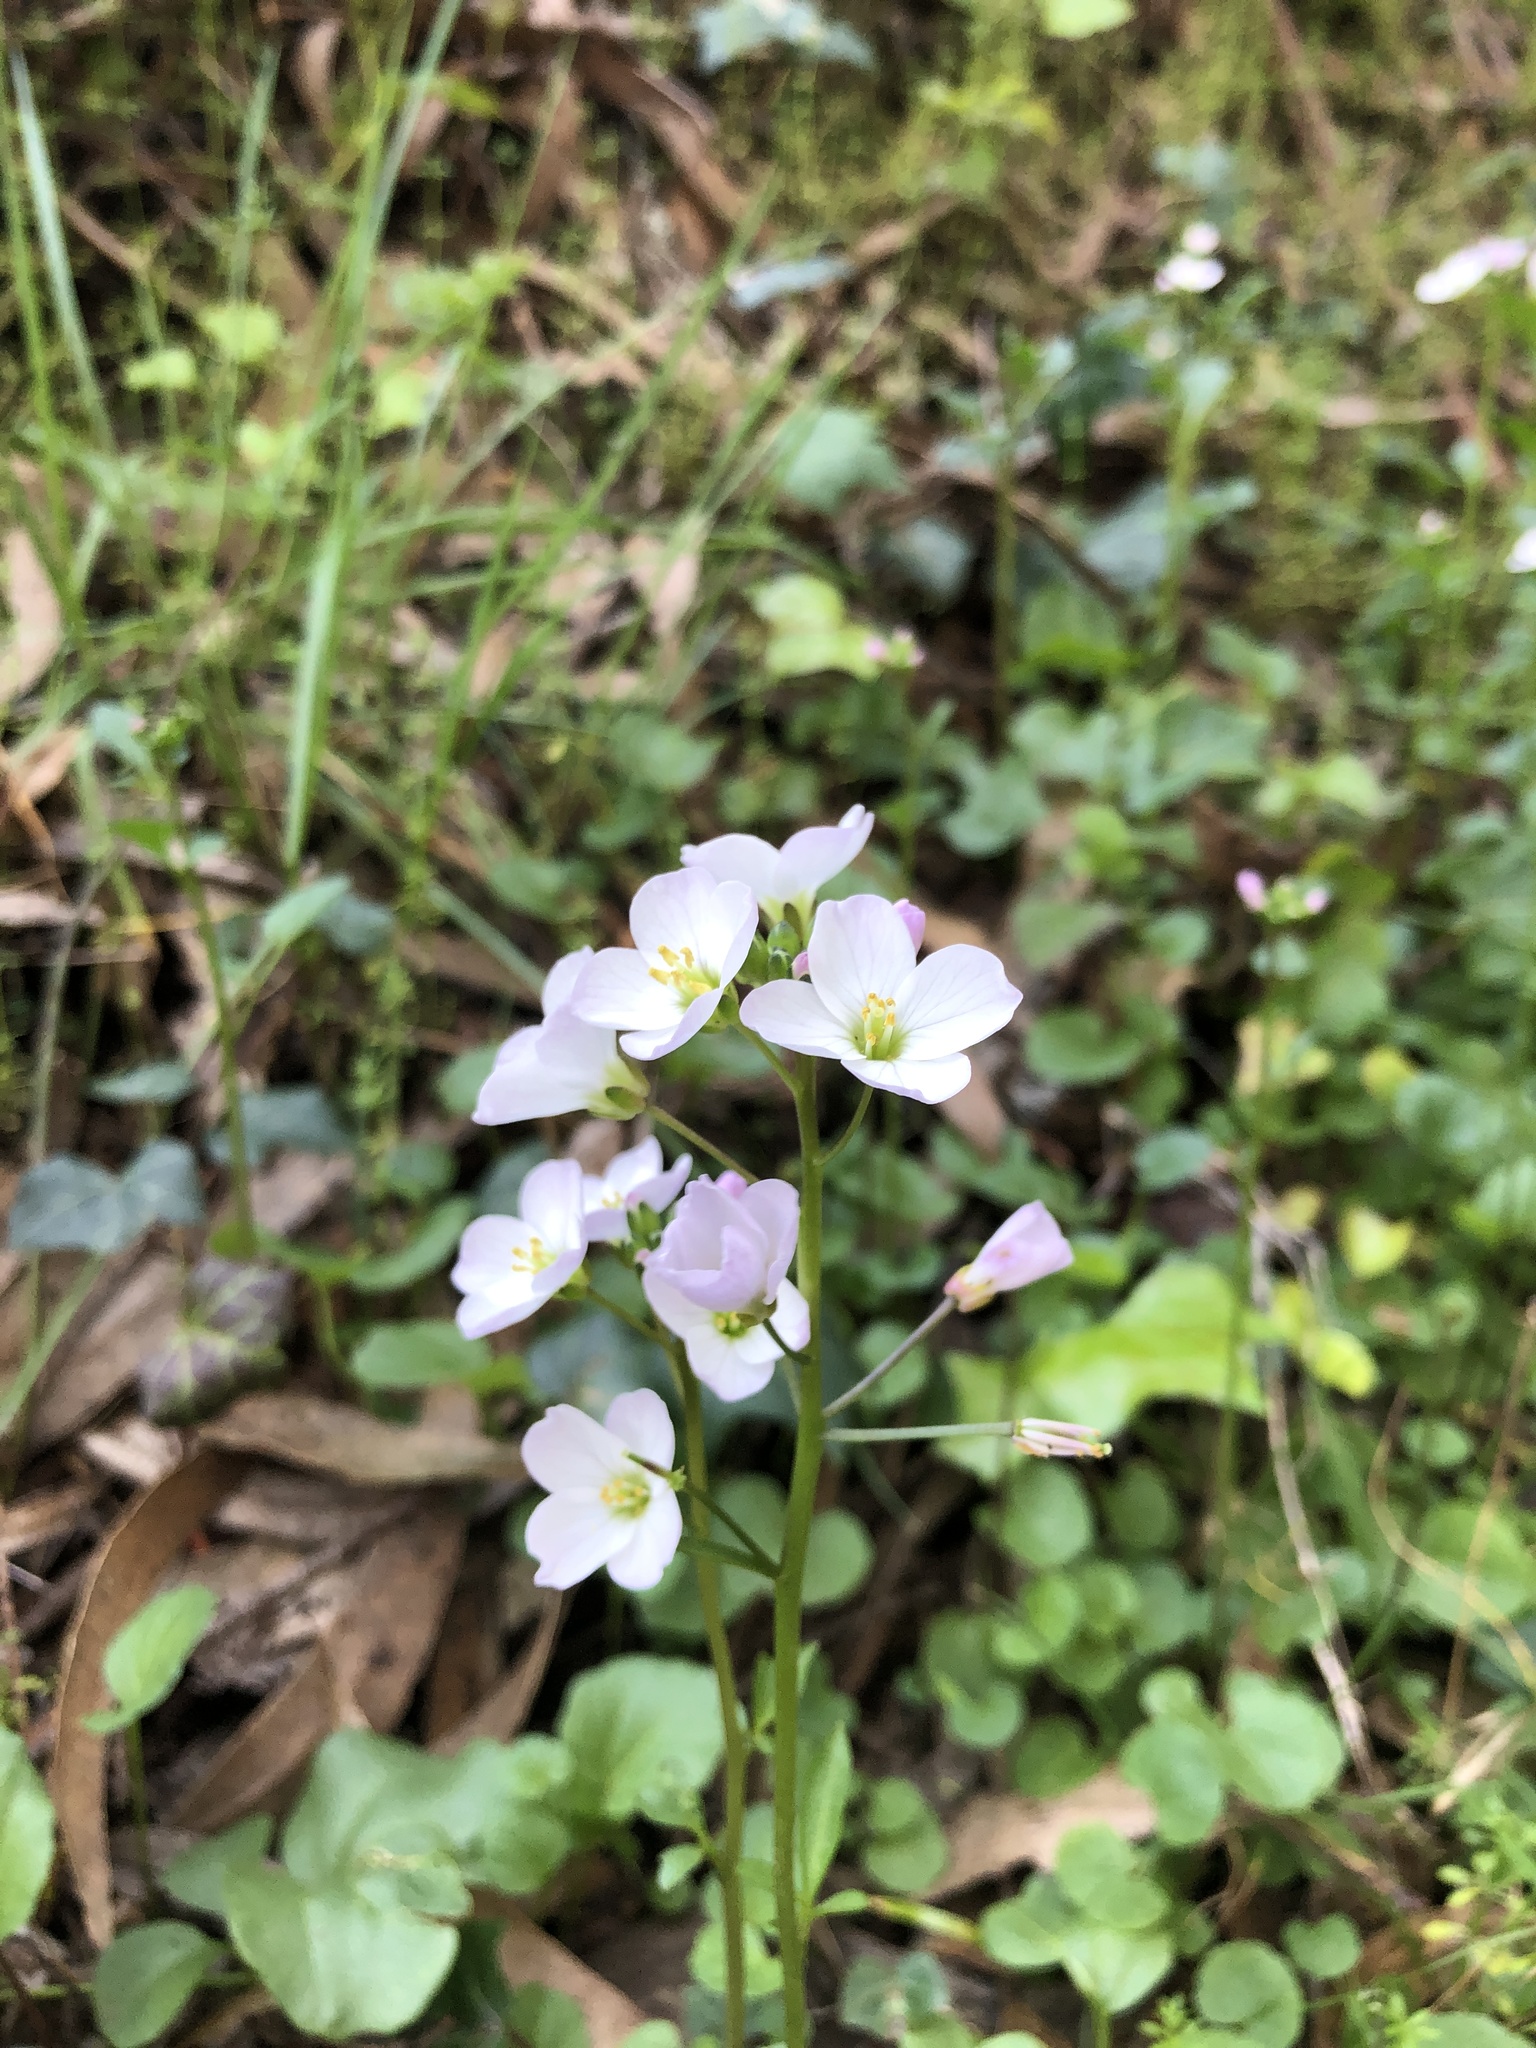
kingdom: Plantae
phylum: Tracheophyta
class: Magnoliopsida
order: Brassicales
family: Brassicaceae
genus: Cardamine
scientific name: Cardamine californica
